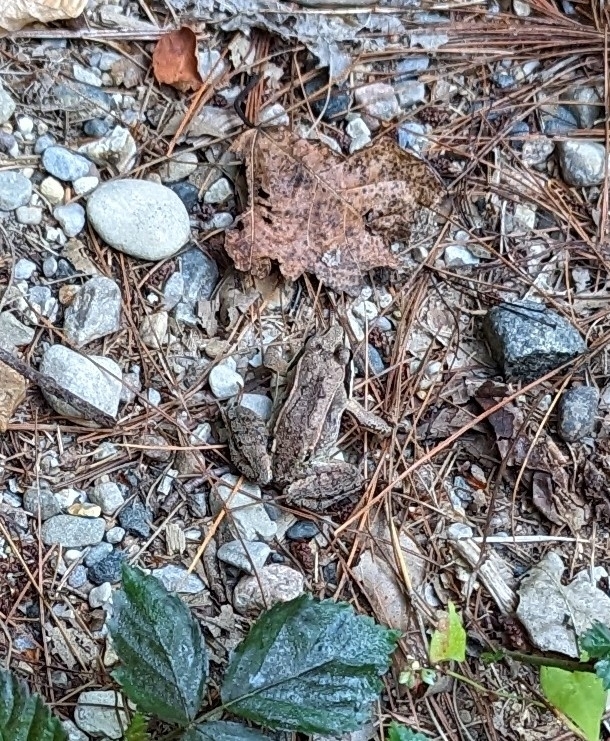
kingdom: Animalia
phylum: Chordata
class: Amphibia
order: Anura
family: Ranidae
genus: Lithobates
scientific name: Lithobates sylvaticus
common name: Wood frog
